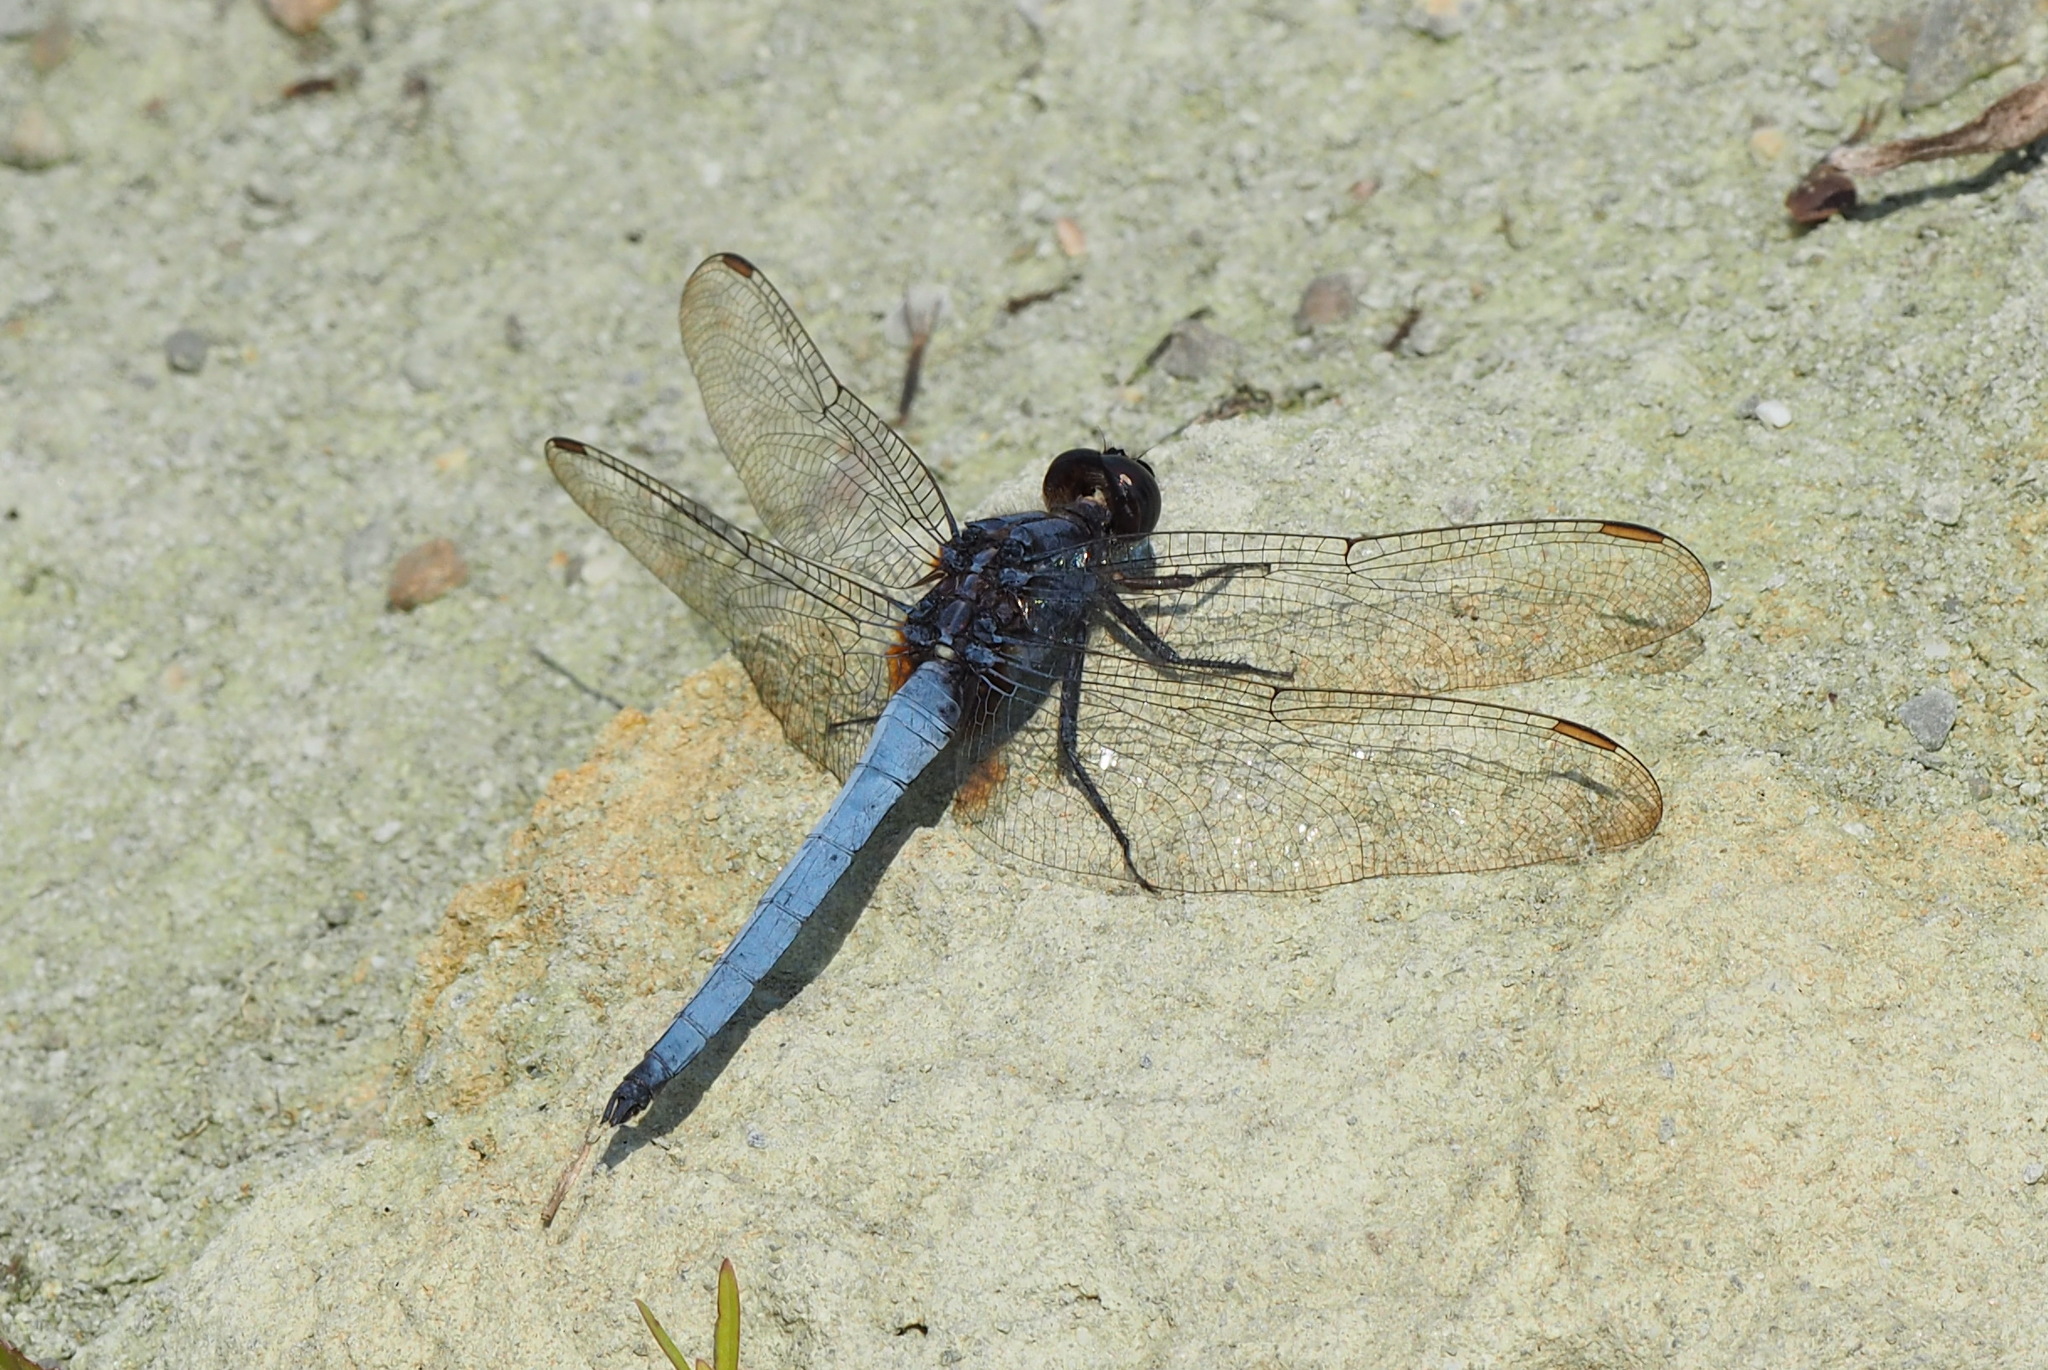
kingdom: Animalia
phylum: Arthropoda
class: Insecta
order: Odonata
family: Libellulidae
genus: Orthetrum
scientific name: Orthetrum glaucum
